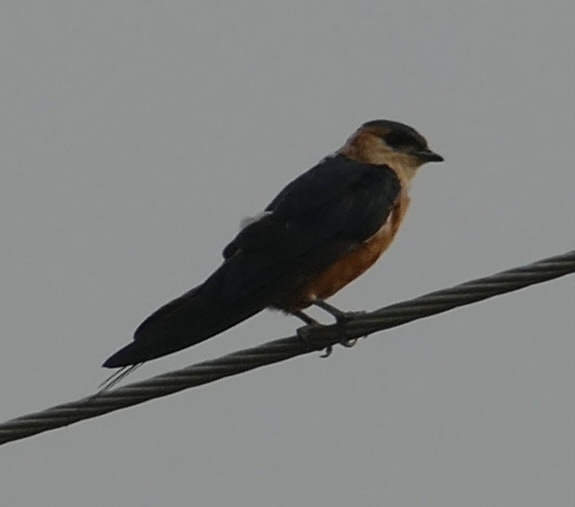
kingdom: Animalia
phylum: Chordata
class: Aves
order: Passeriformes
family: Hirundinidae
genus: Cecropis
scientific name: Cecropis senegalensis
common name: Mosque swallow
